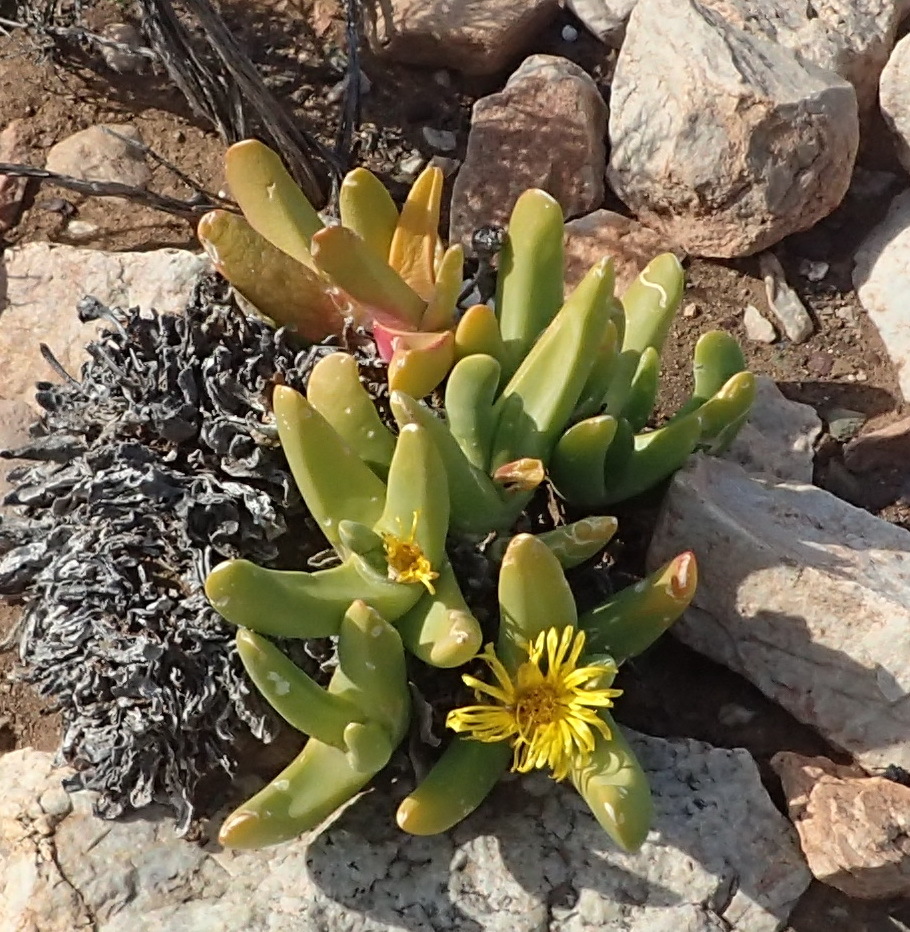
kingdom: Plantae
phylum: Tracheophyta
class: Magnoliopsida
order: Caryophyllales
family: Aizoaceae
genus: Glottiphyllum
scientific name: Glottiphyllum regium
